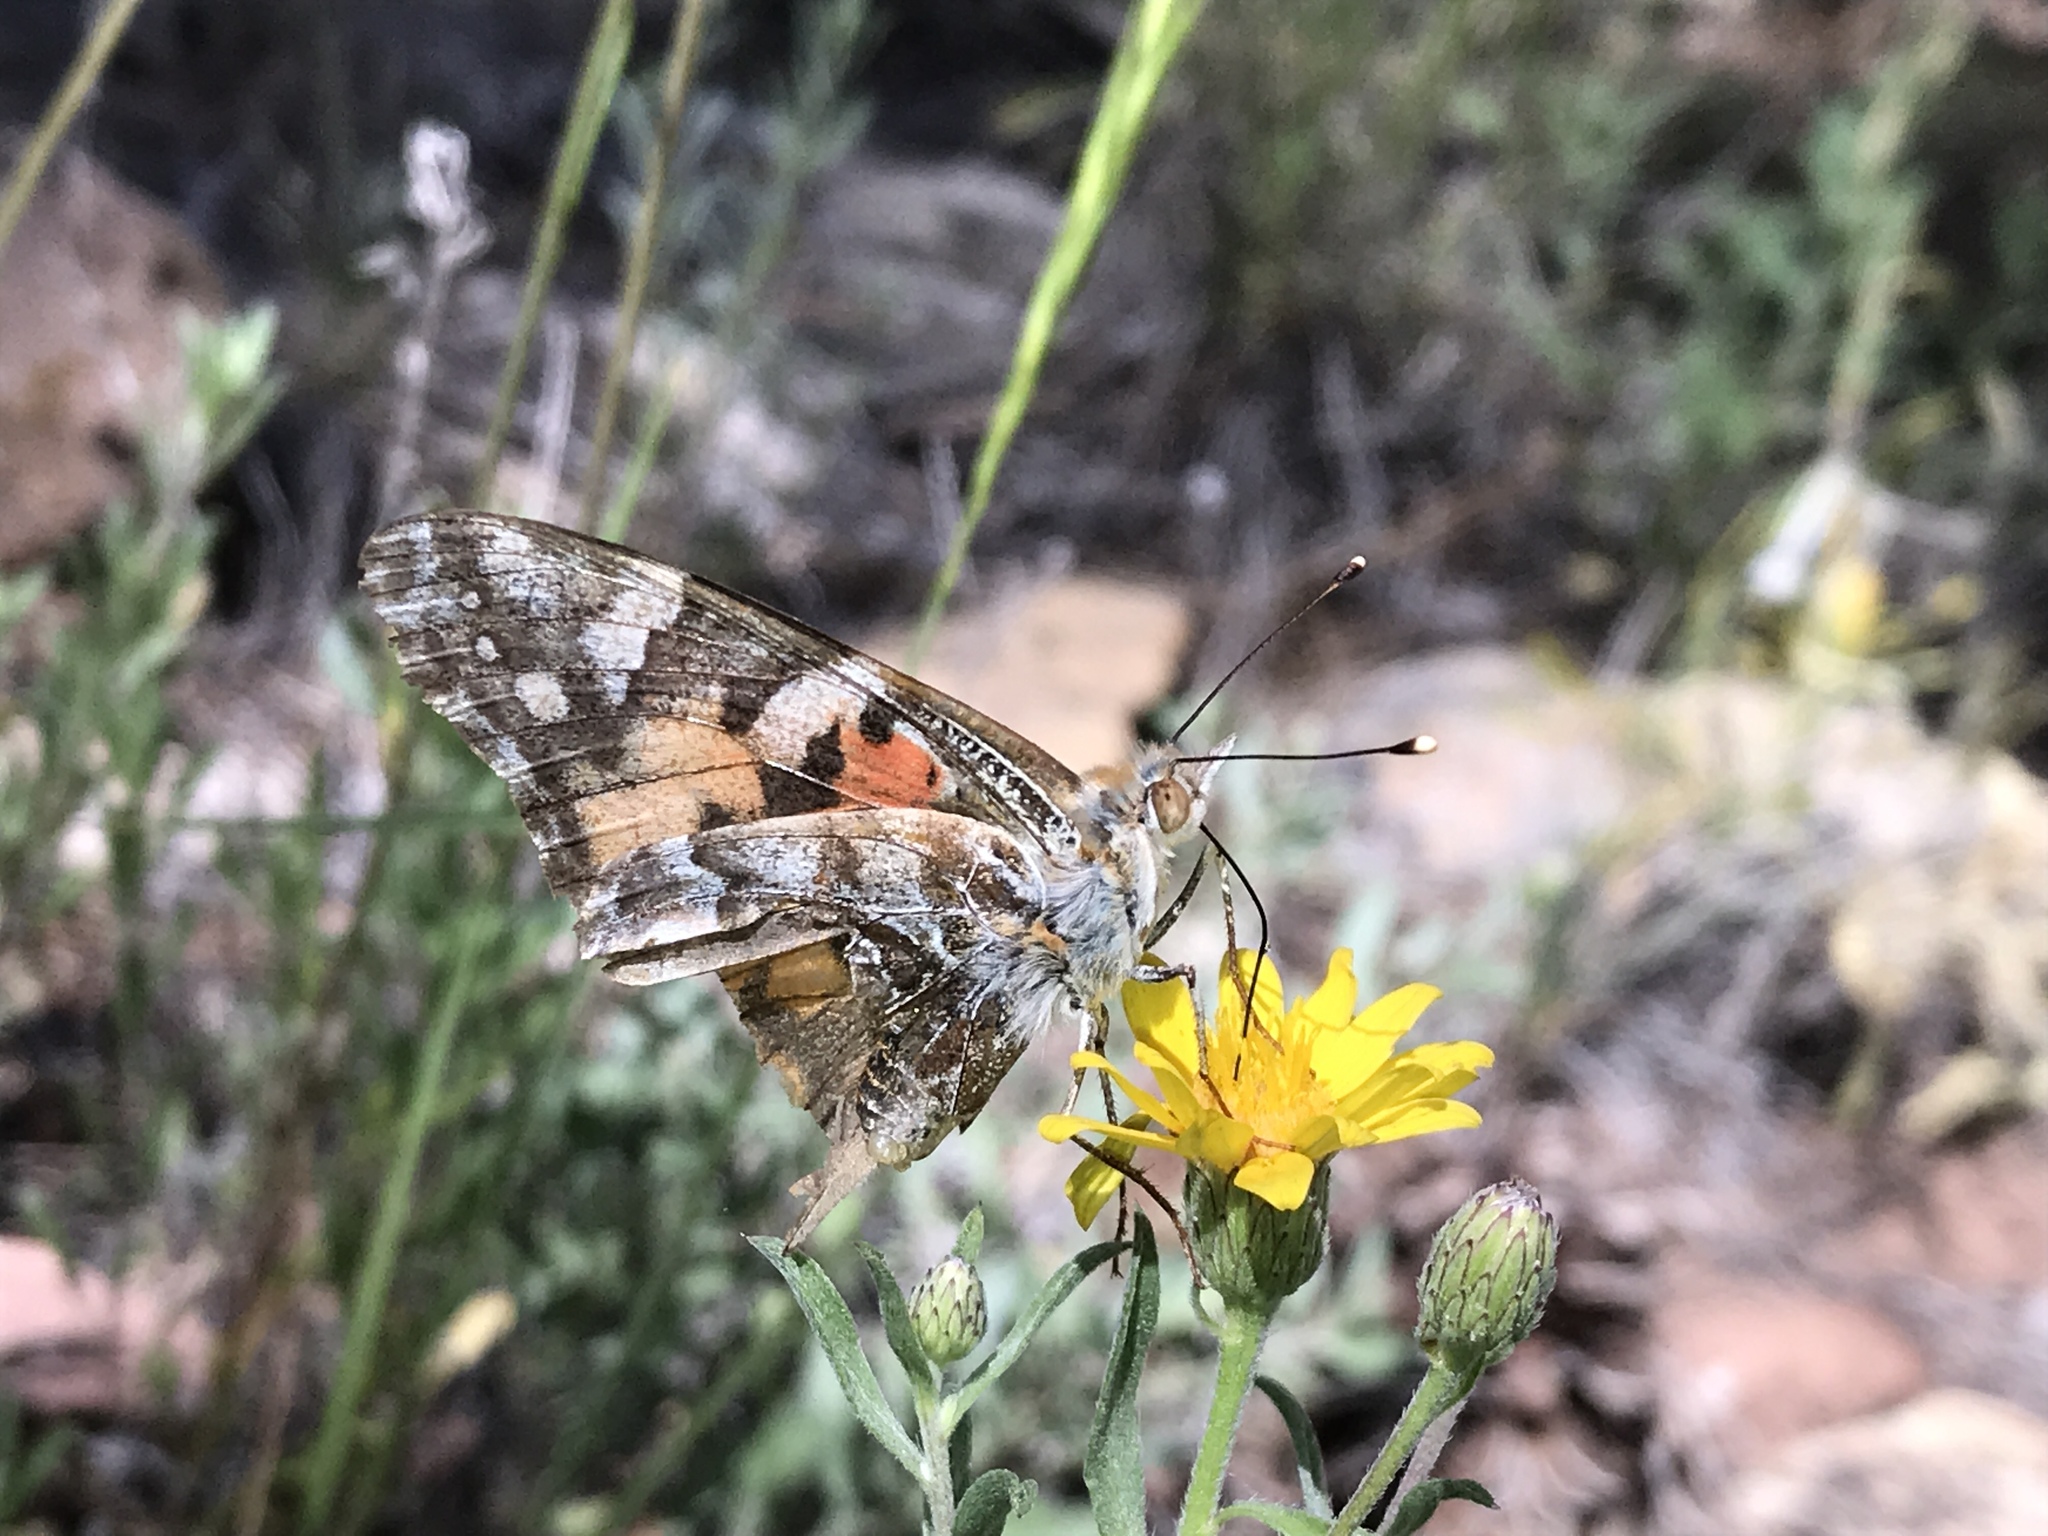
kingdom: Animalia
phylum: Arthropoda
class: Insecta
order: Lepidoptera
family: Nymphalidae
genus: Vanessa
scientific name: Vanessa cardui
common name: Painted lady
